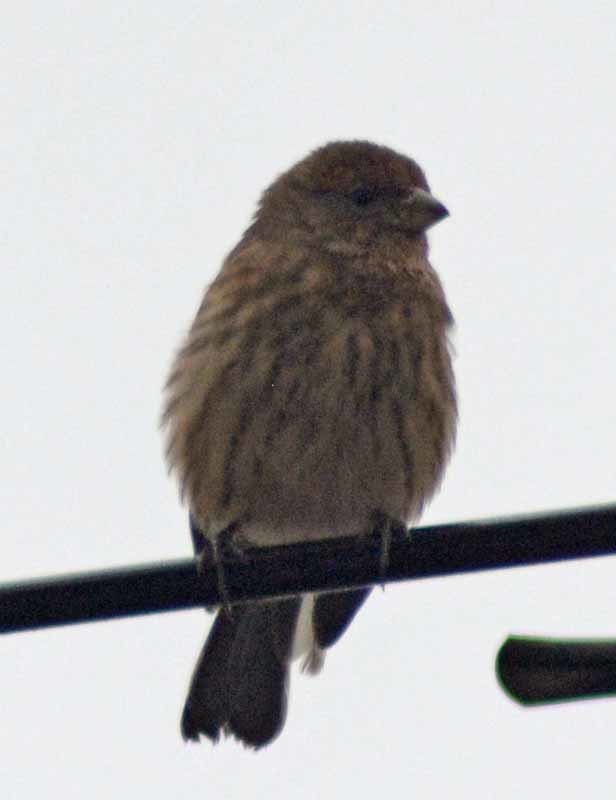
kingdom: Animalia
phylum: Chordata
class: Aves
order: Passeriformes
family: Fringillidae
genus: Haemorhous
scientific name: Haemorhous mexicanus
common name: House finch
